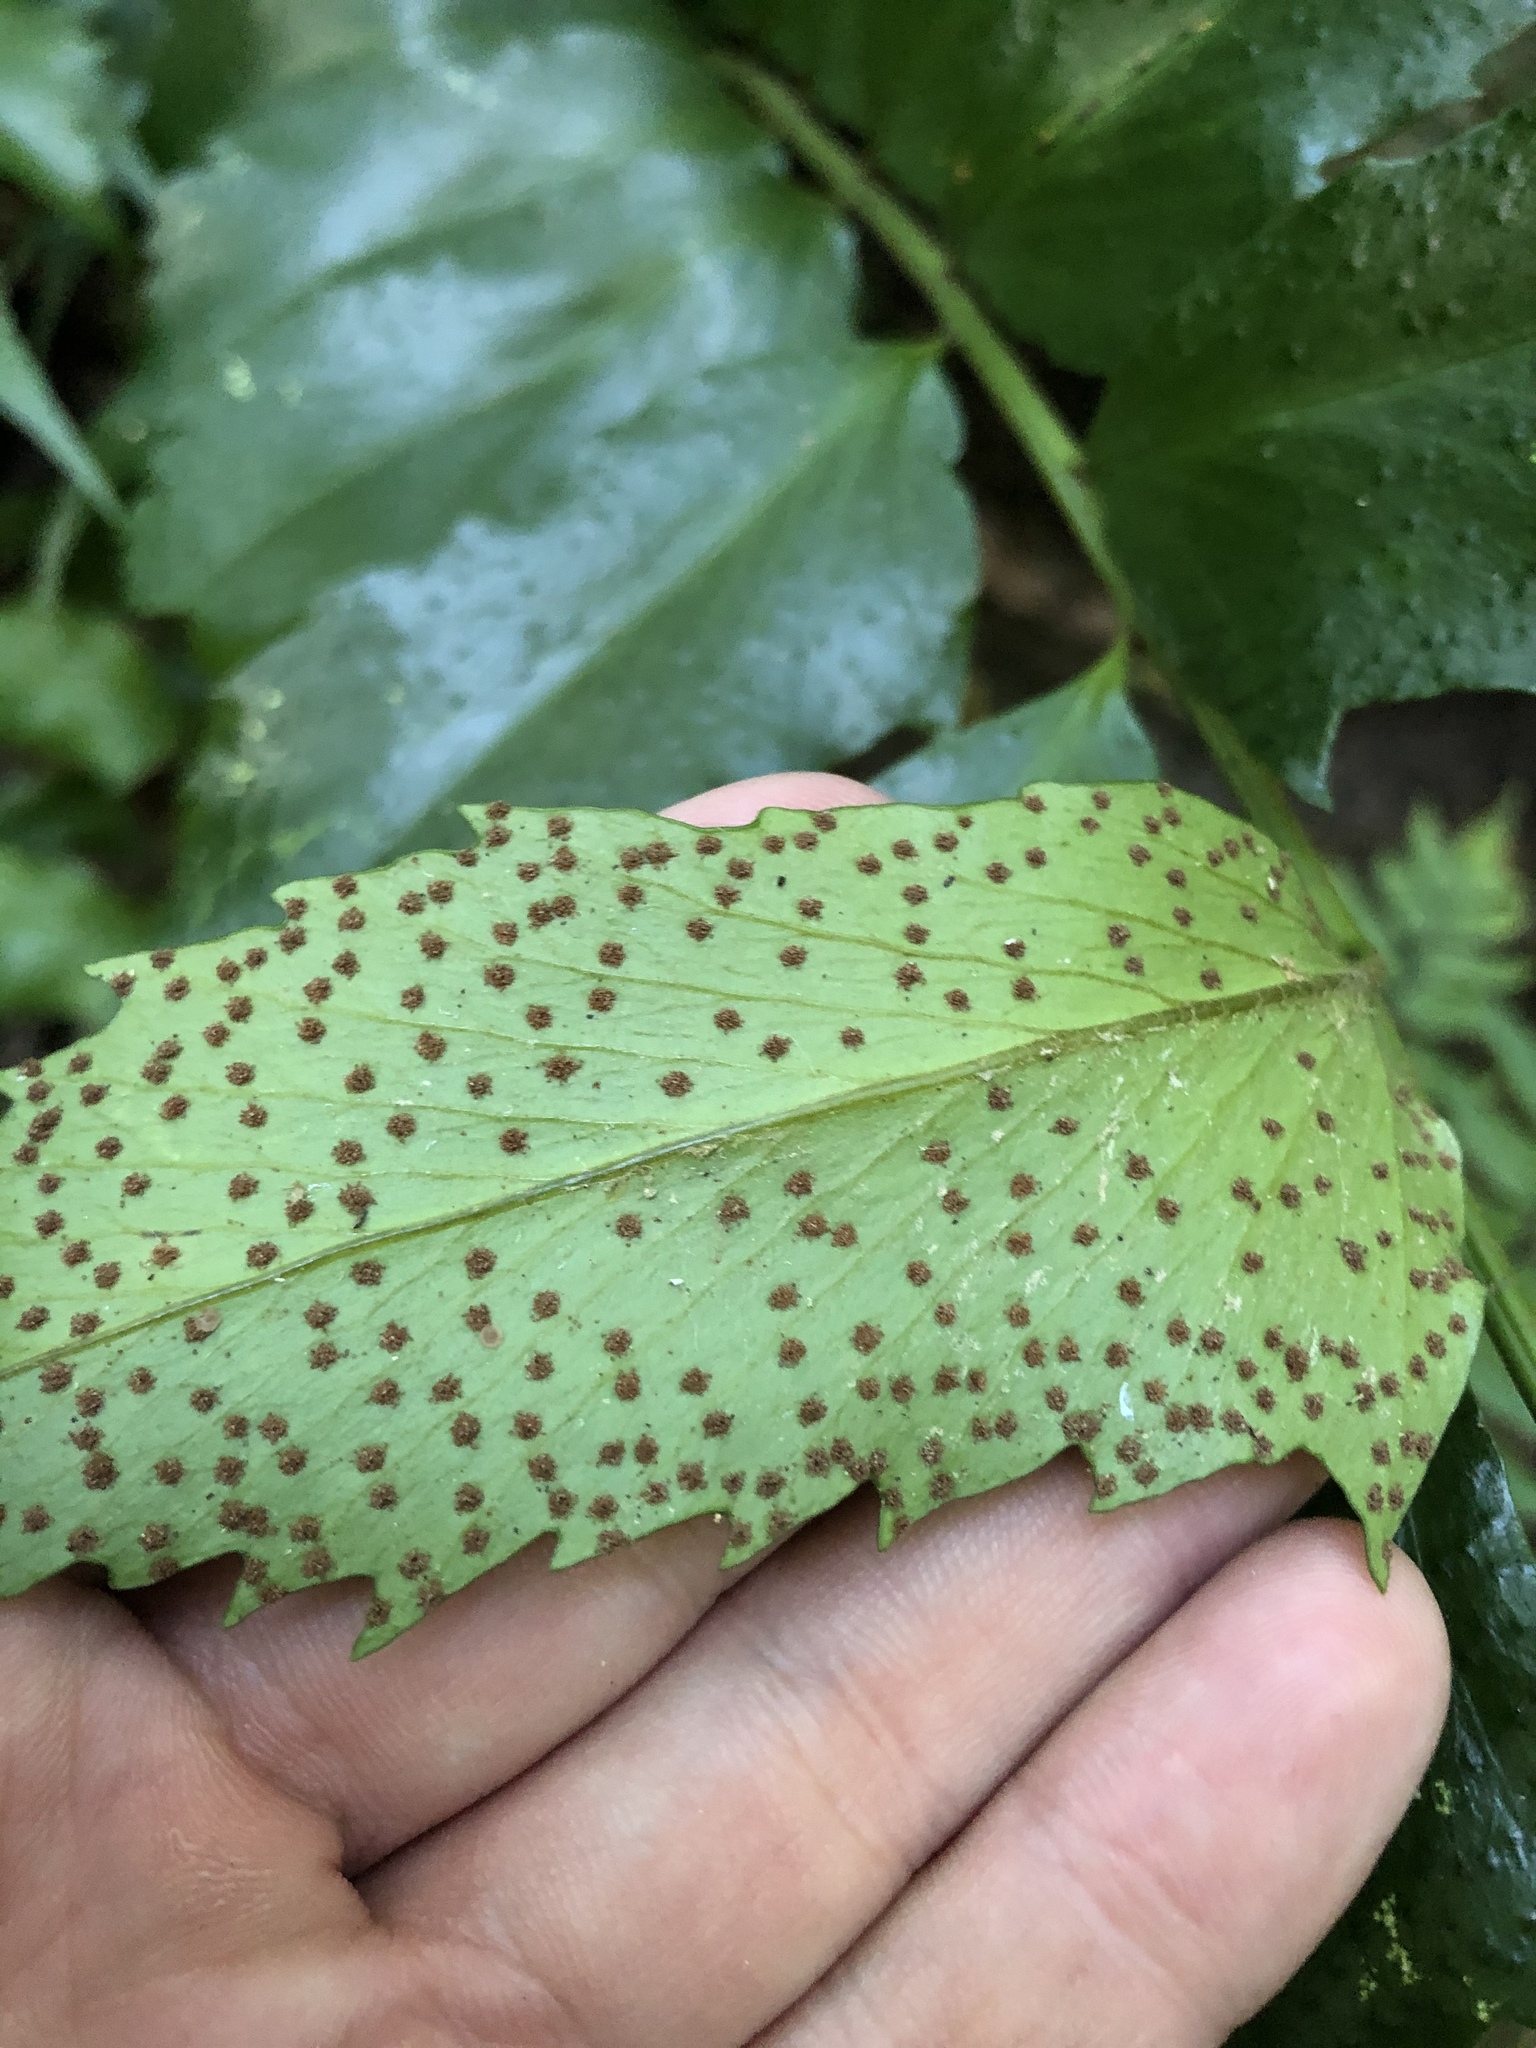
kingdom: Plantae
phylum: Tracheophyta
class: Polypodiopsida
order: Polypodiales
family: Dryopteridaceae
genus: Cyrtomium
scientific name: Cyrtomium falcatum
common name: House holly-fern
